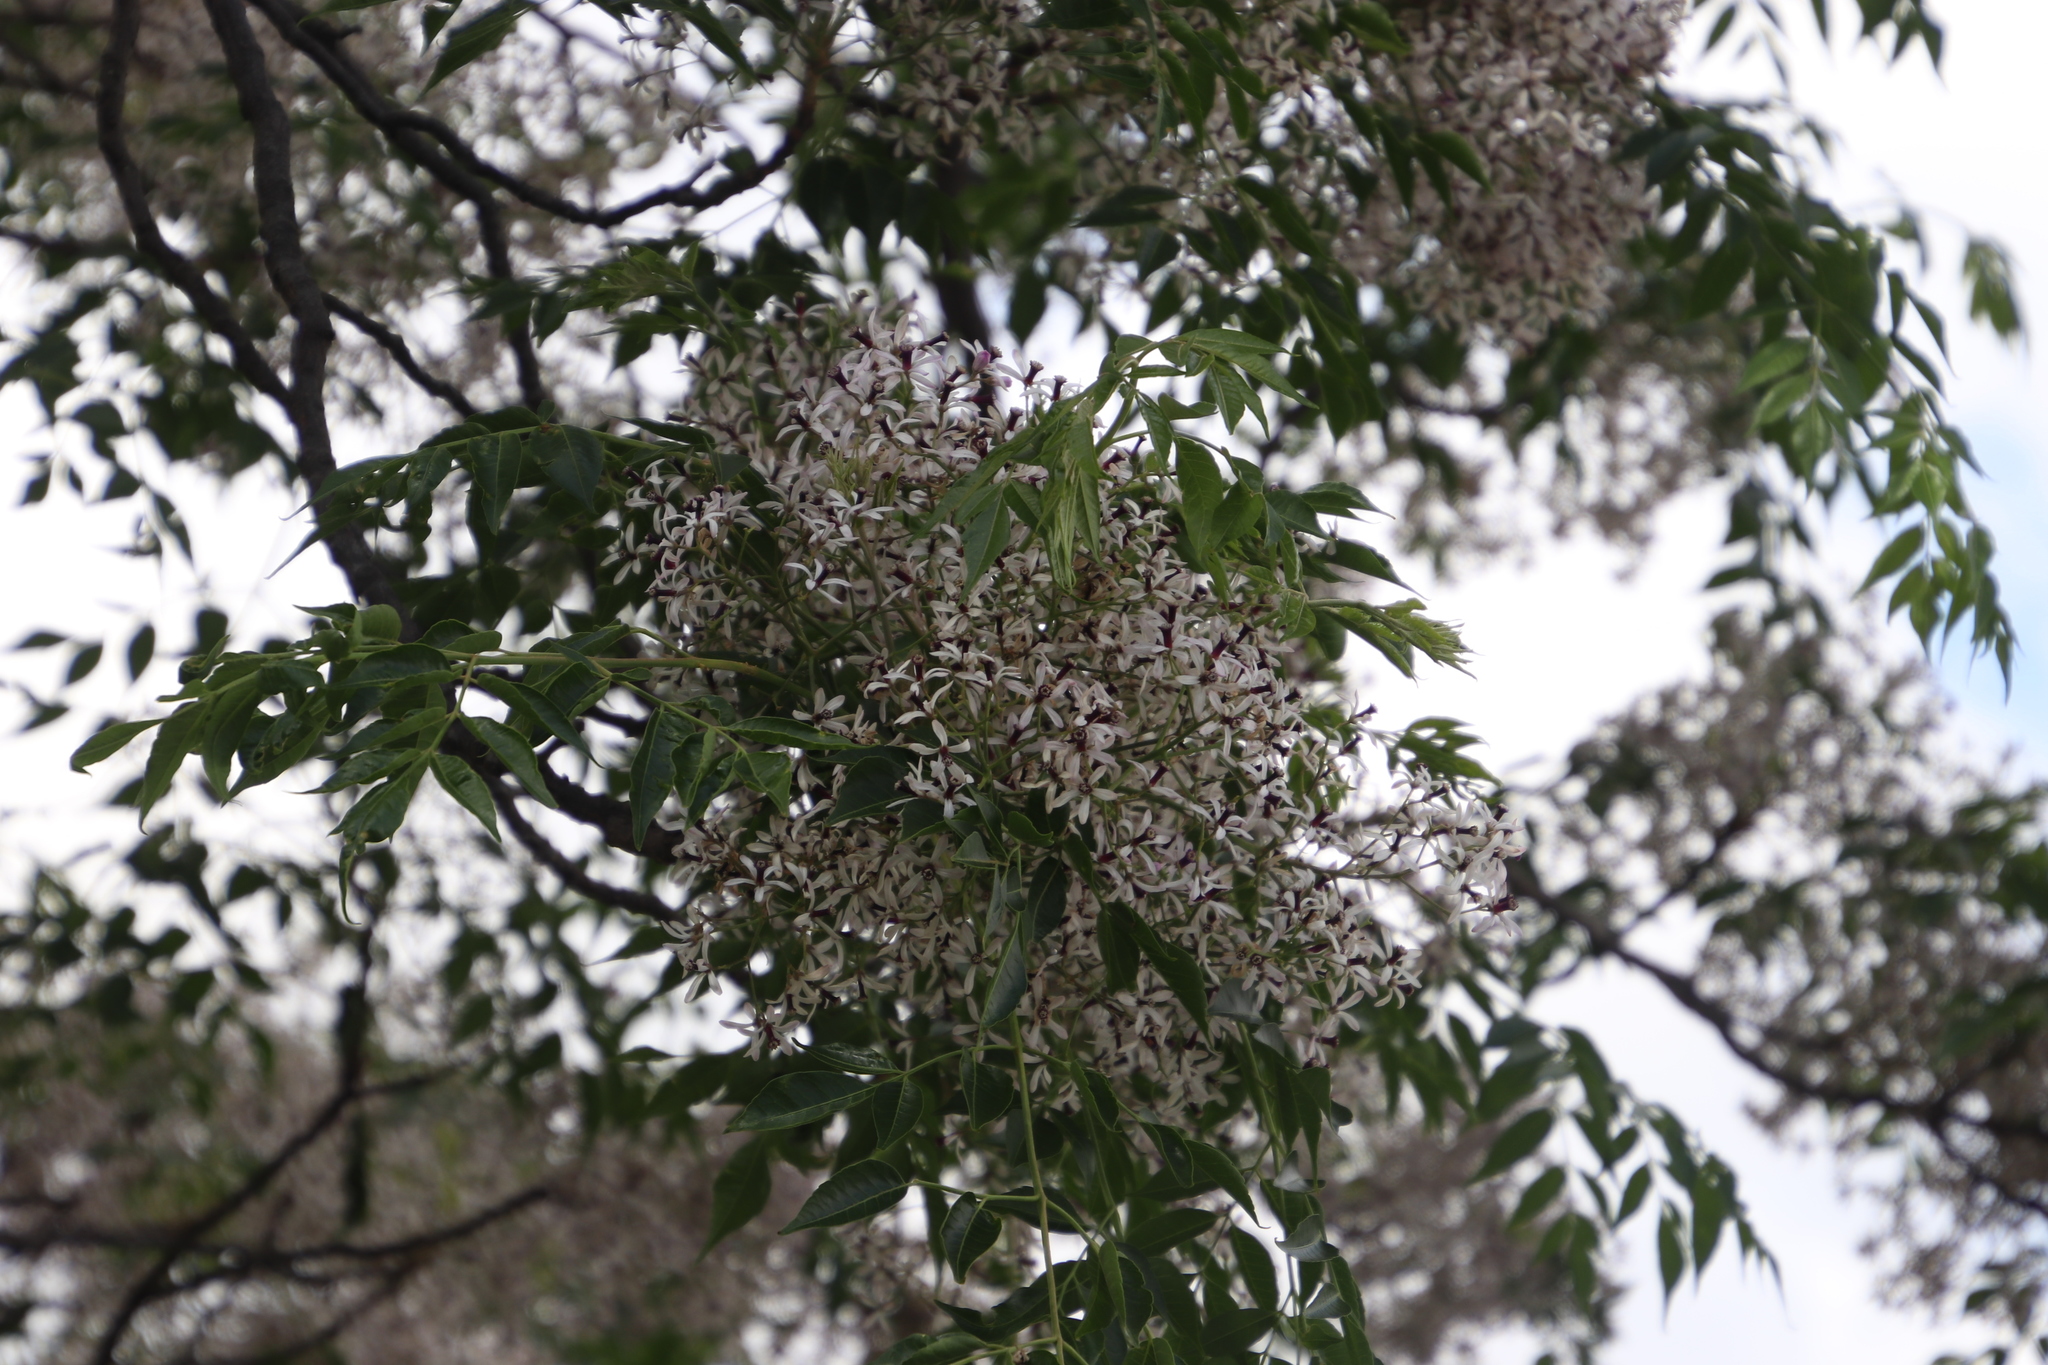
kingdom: Plantae
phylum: Tracheophyta
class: Magnoliopsida
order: Sapindales
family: Meliaceae
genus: Melia
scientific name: Melia azedarach
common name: Chinaberrytree
